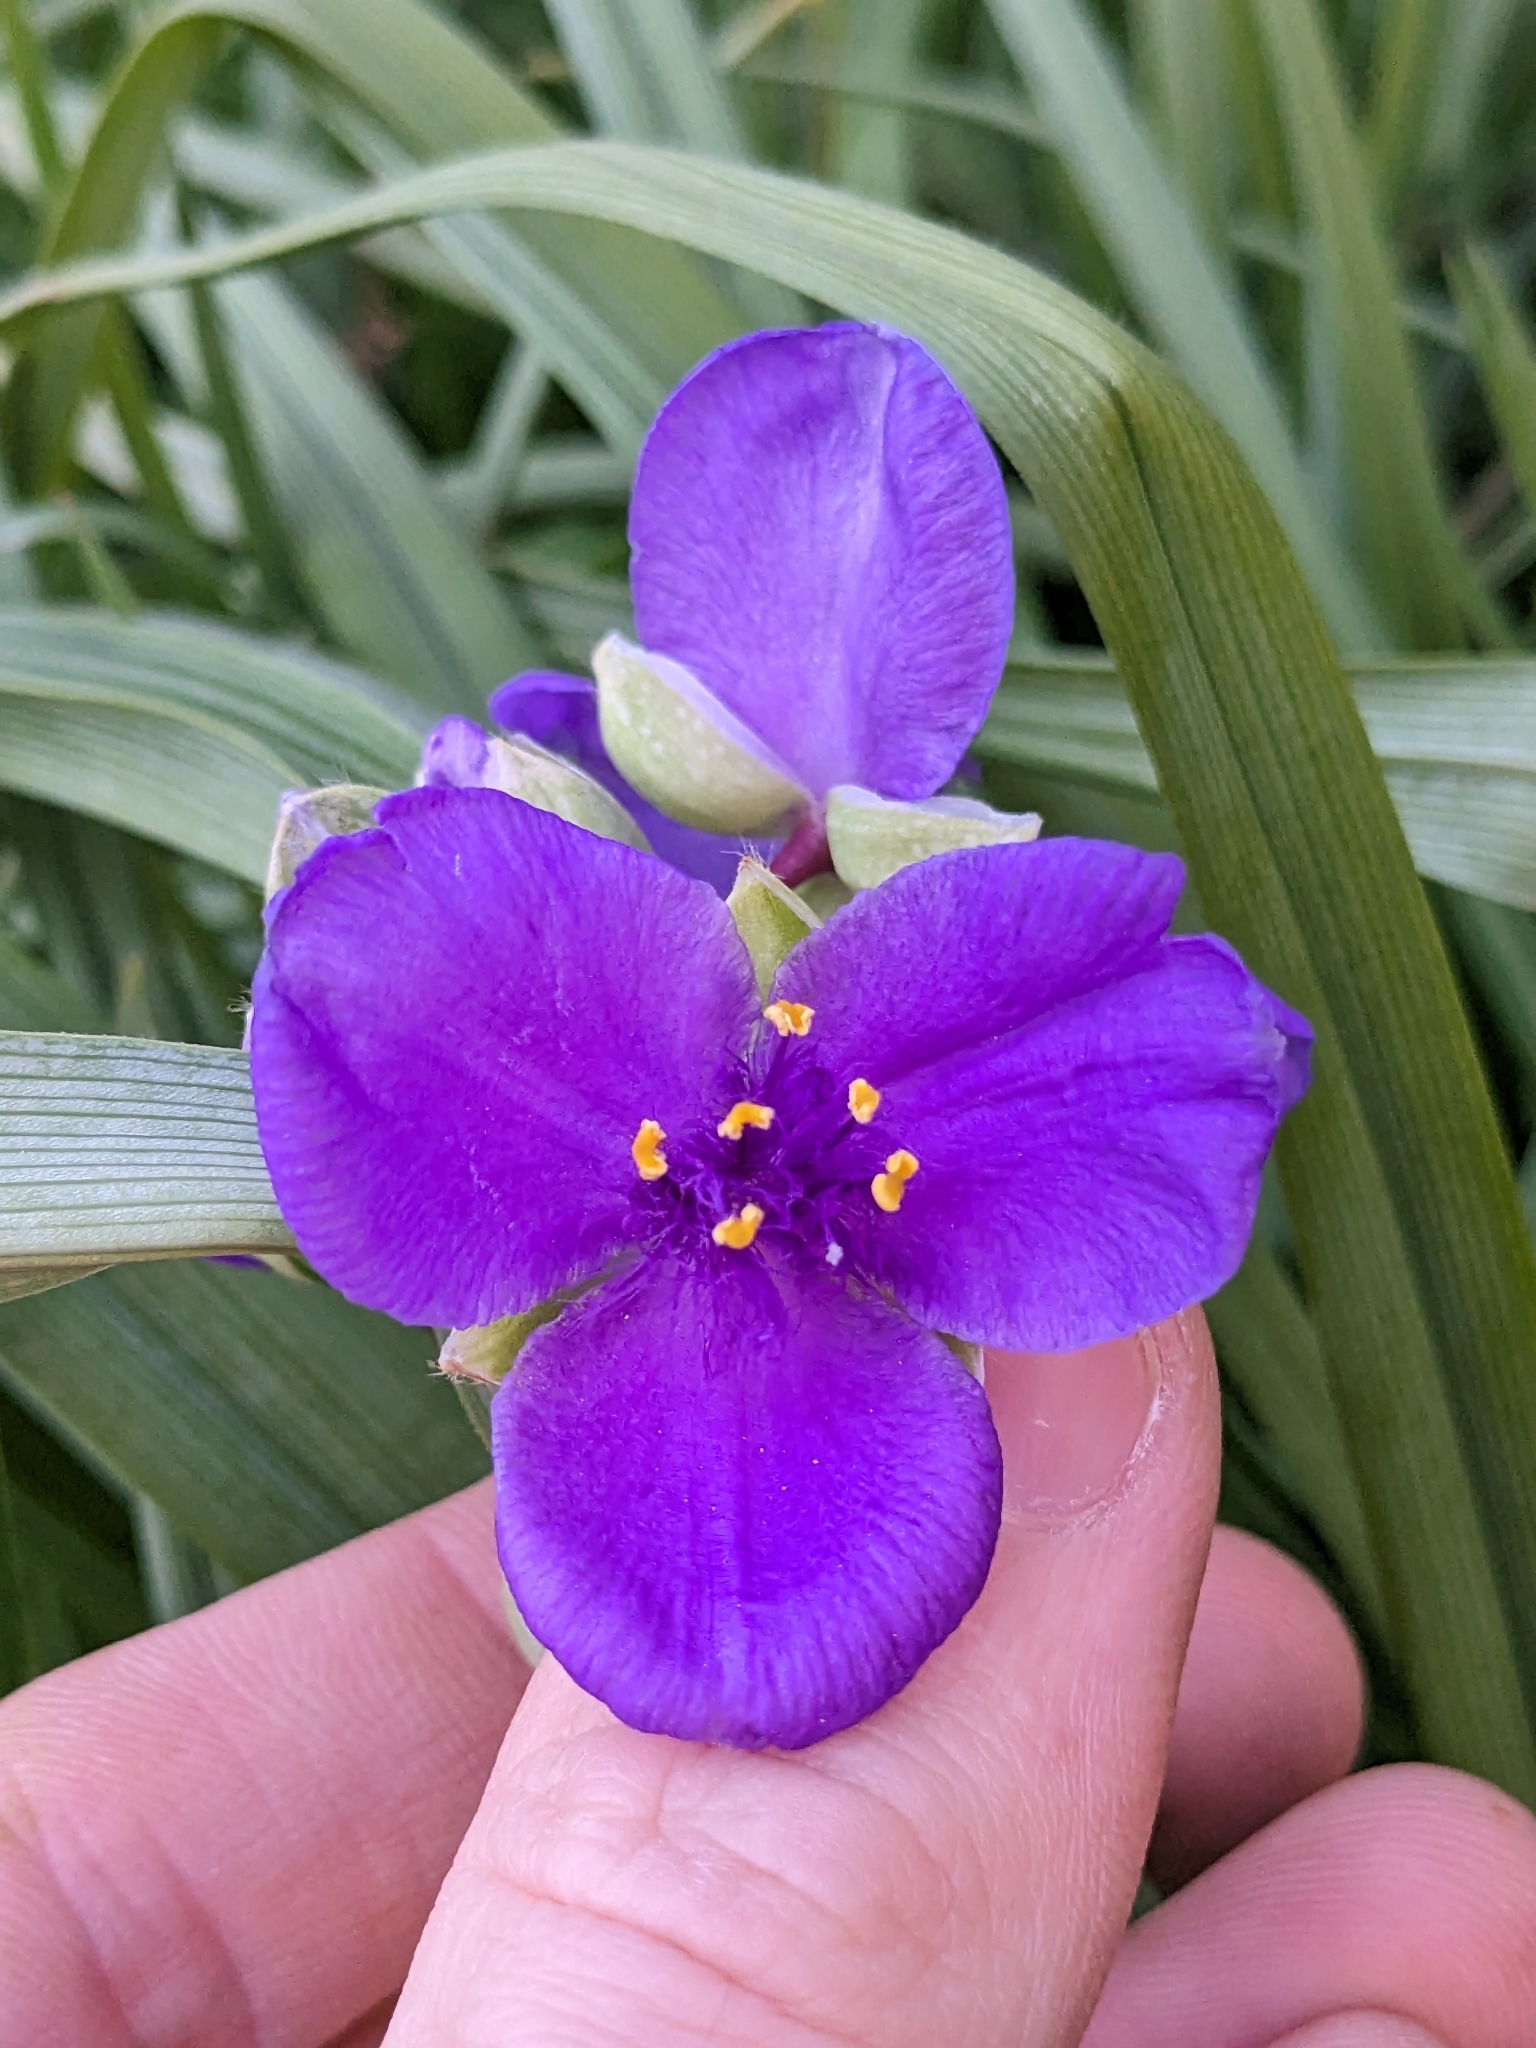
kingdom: Plantae
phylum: Tracheophyta
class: Liliopsida
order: Commelinales
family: Commelinaceae
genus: Tradescantia
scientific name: Tradescantia virginiana
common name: Spiderwort
